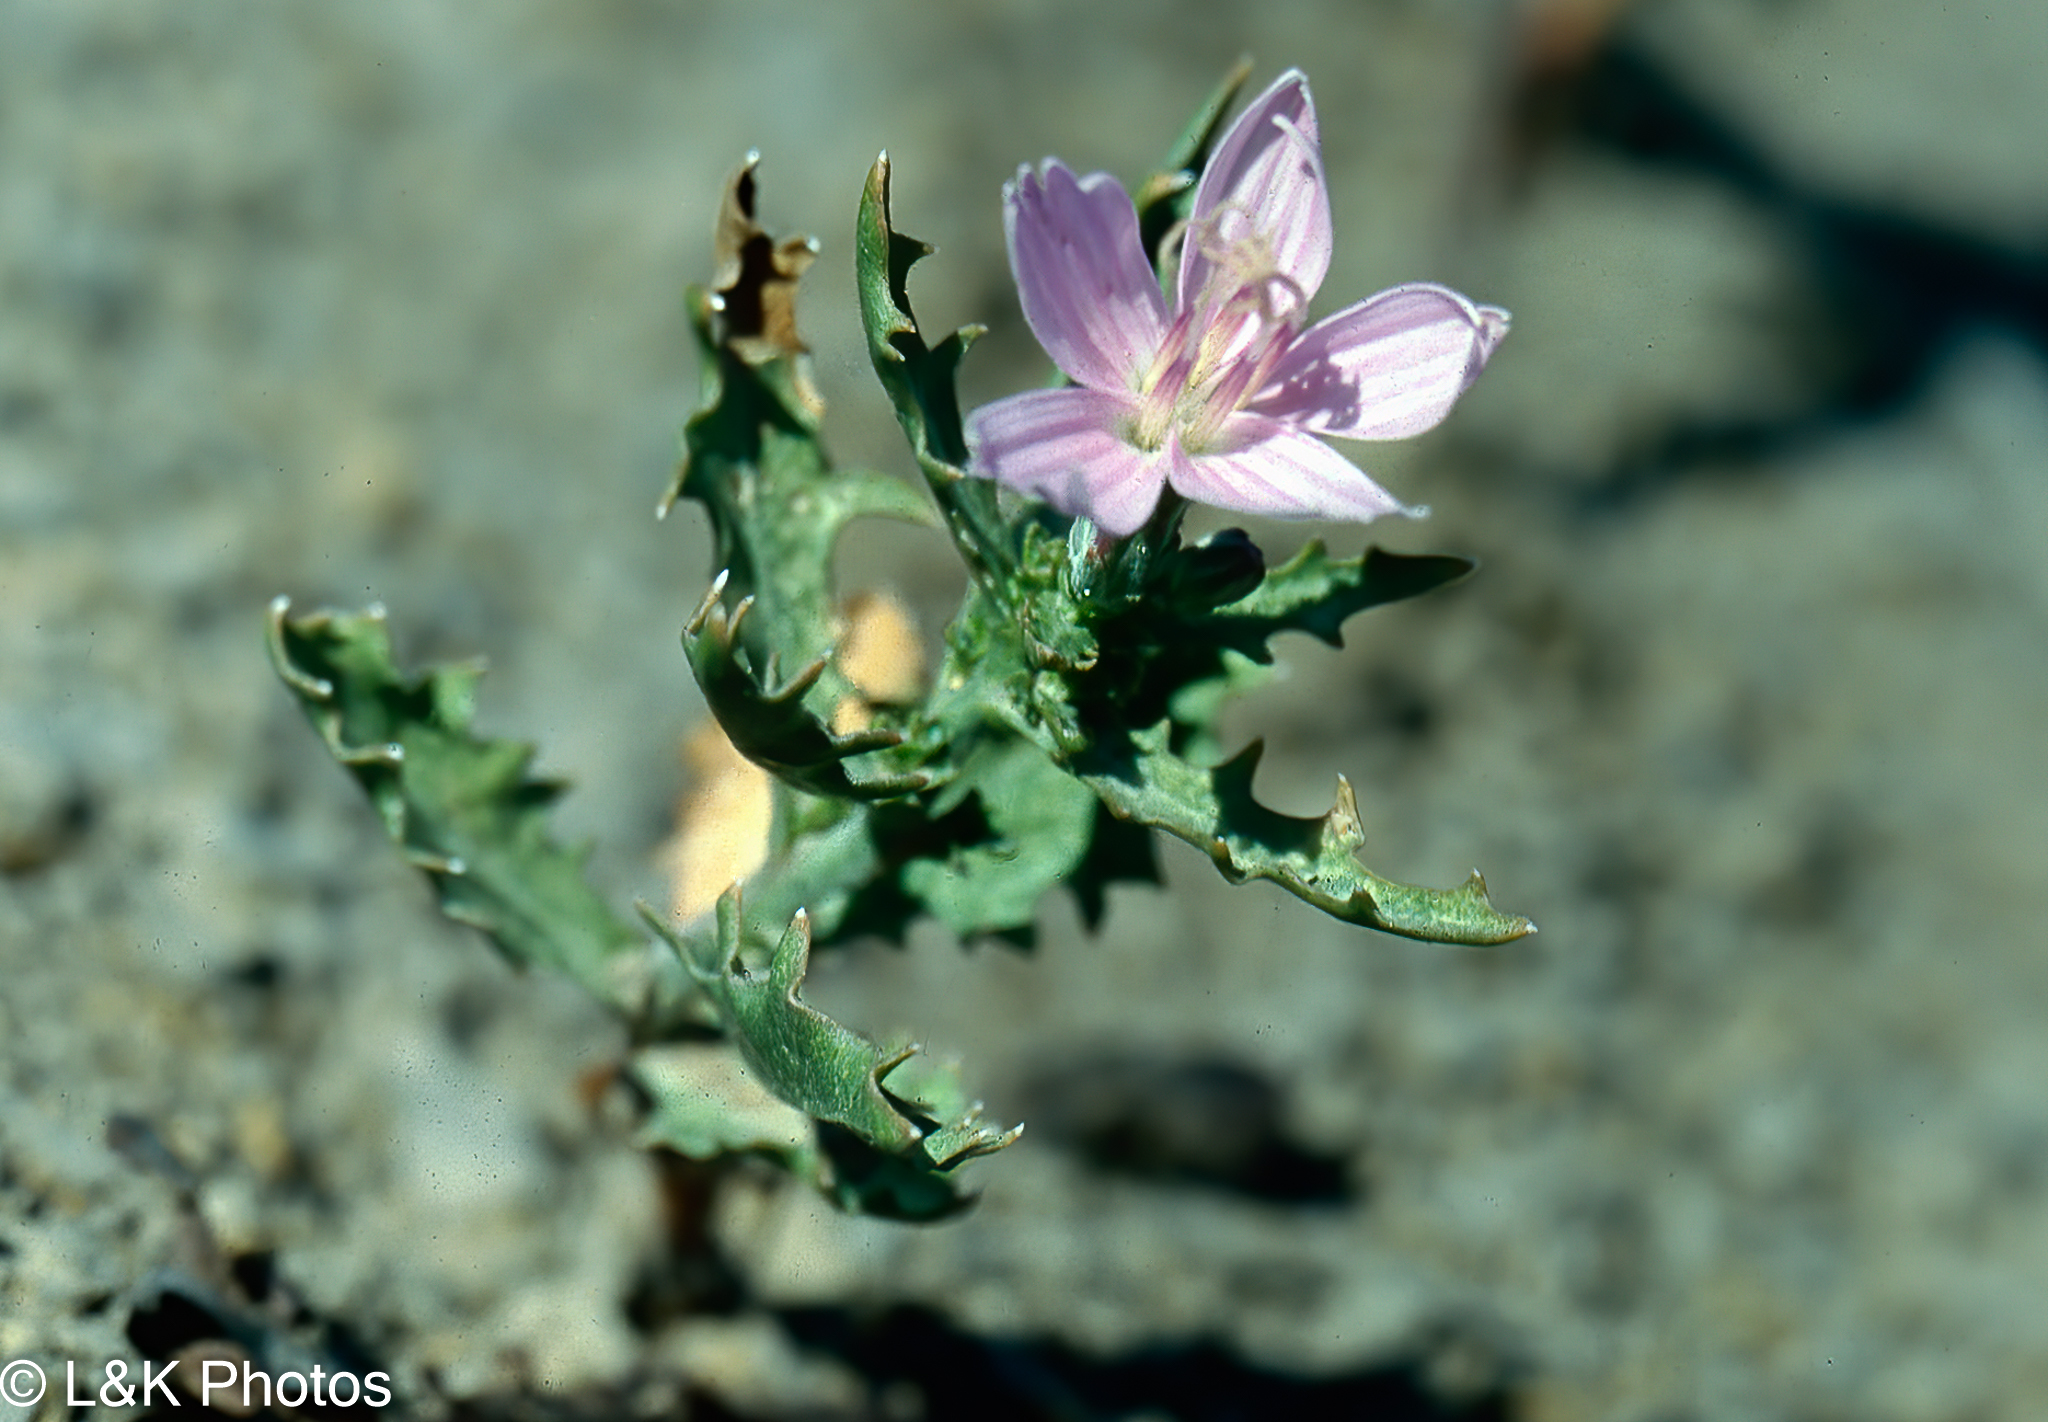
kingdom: Plantae
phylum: Tracheophyta
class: Magnoliopsida
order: Asterales
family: Asteraceae
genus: Stephanomeria
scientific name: Stephanomeria runcinata
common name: Desert wirelettuce
